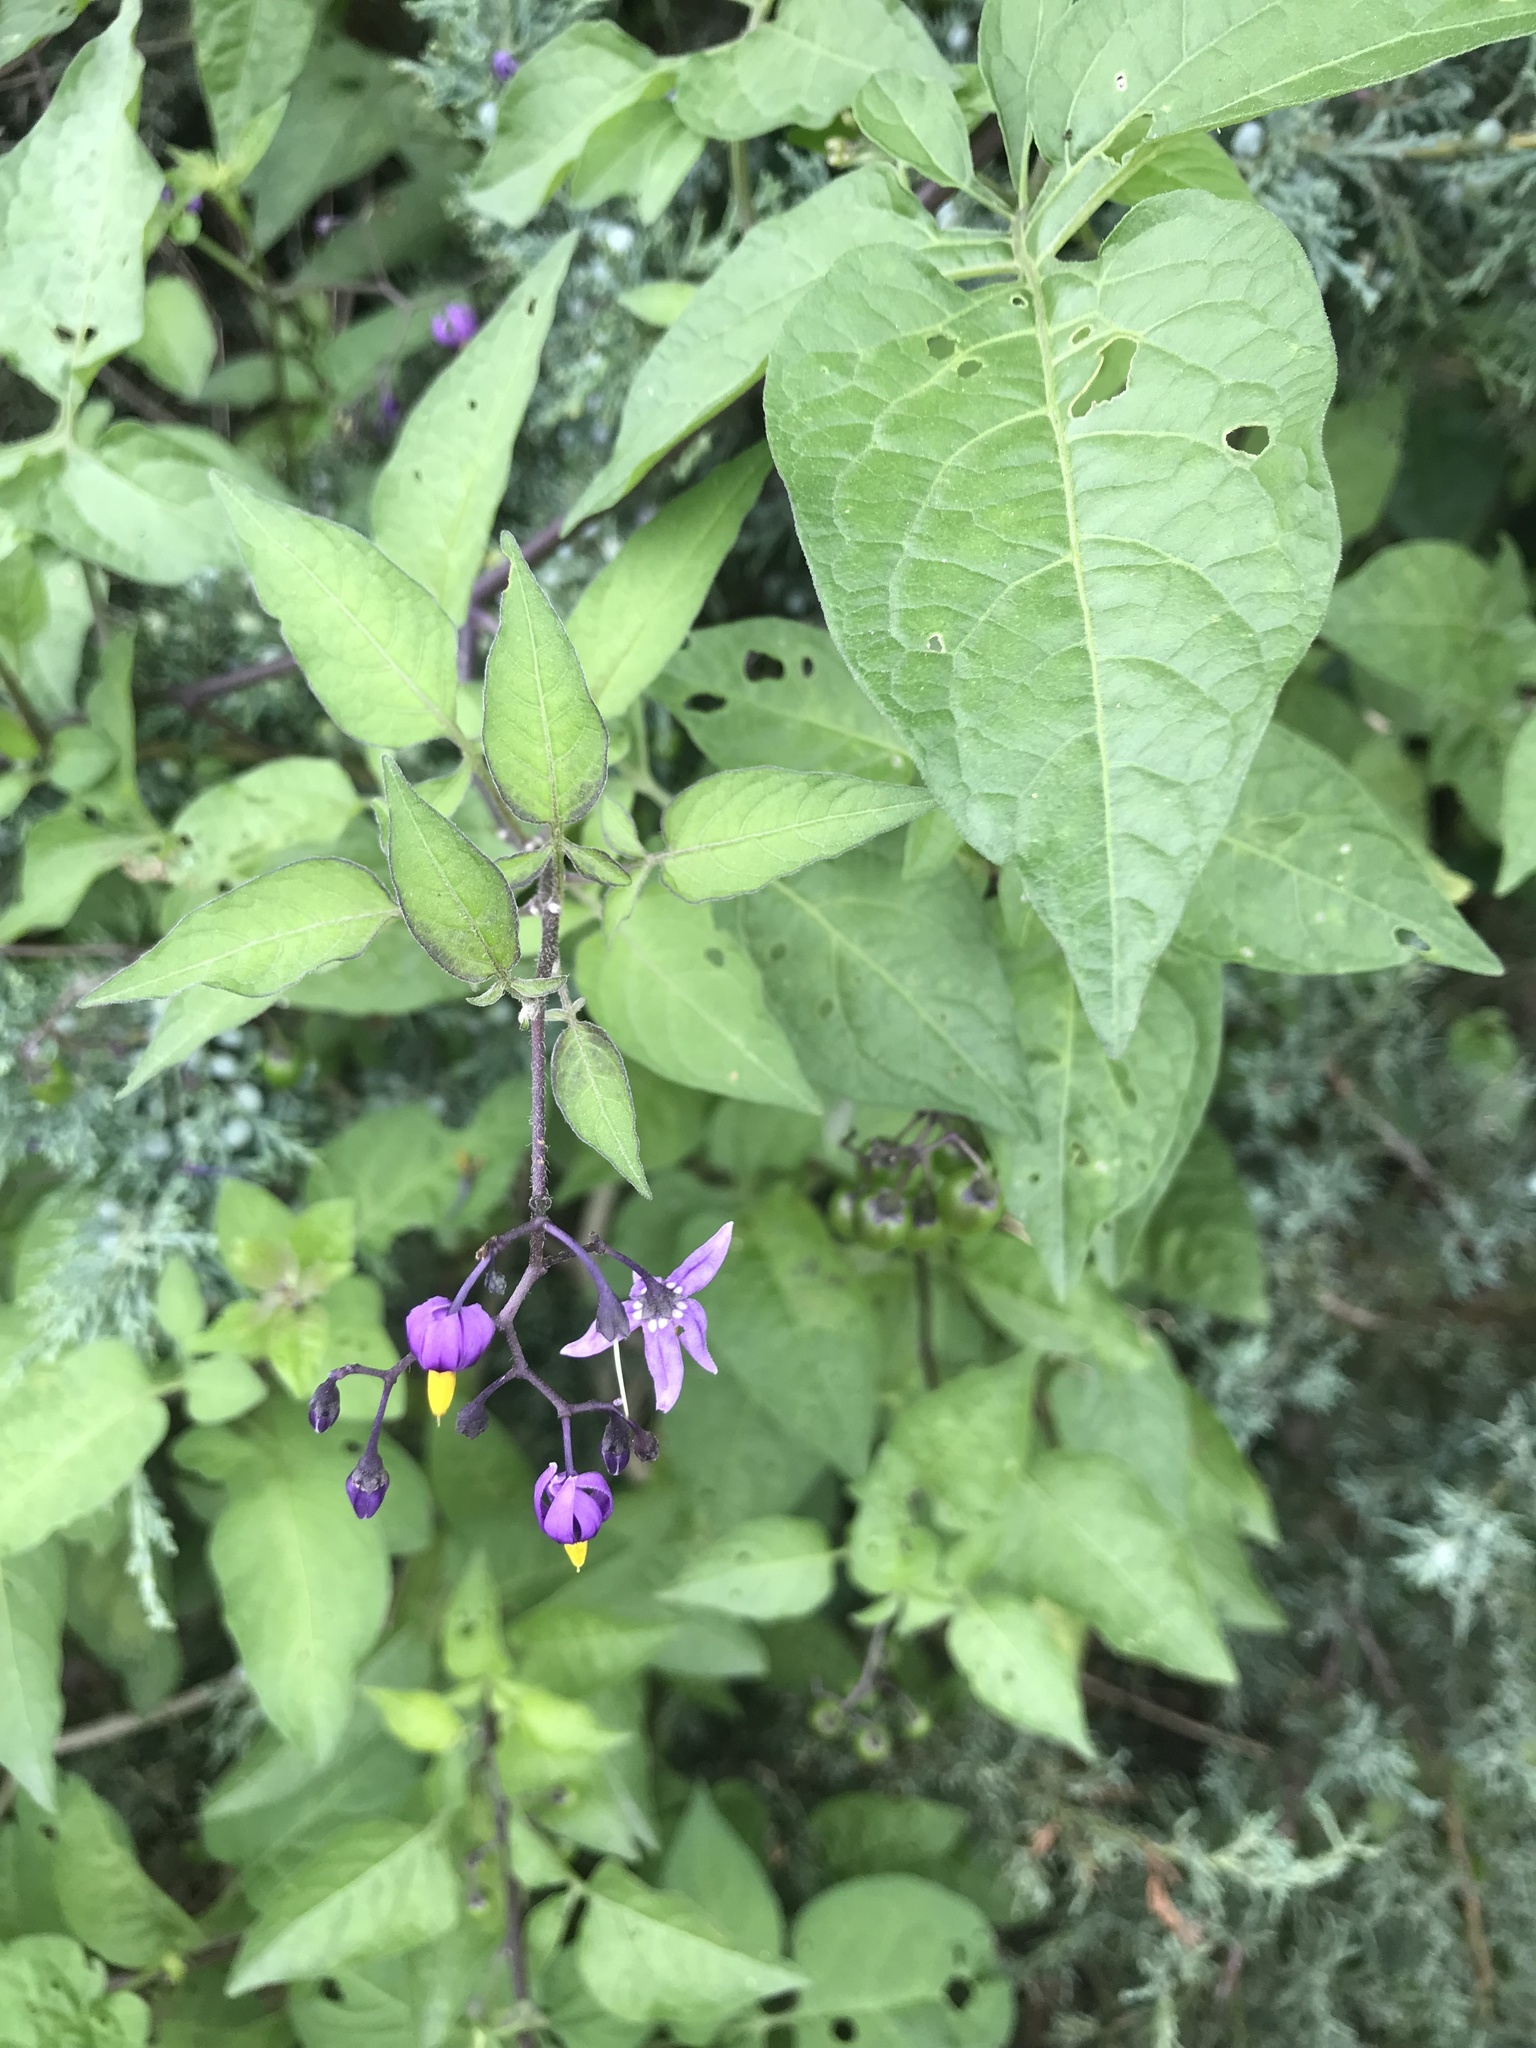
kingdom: Plantae
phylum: Tracheophyta
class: Magnoliopsida
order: Solanales
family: Solanaceae
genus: Solanum
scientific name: Solanum dulcamara
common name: Climbing nightshade
